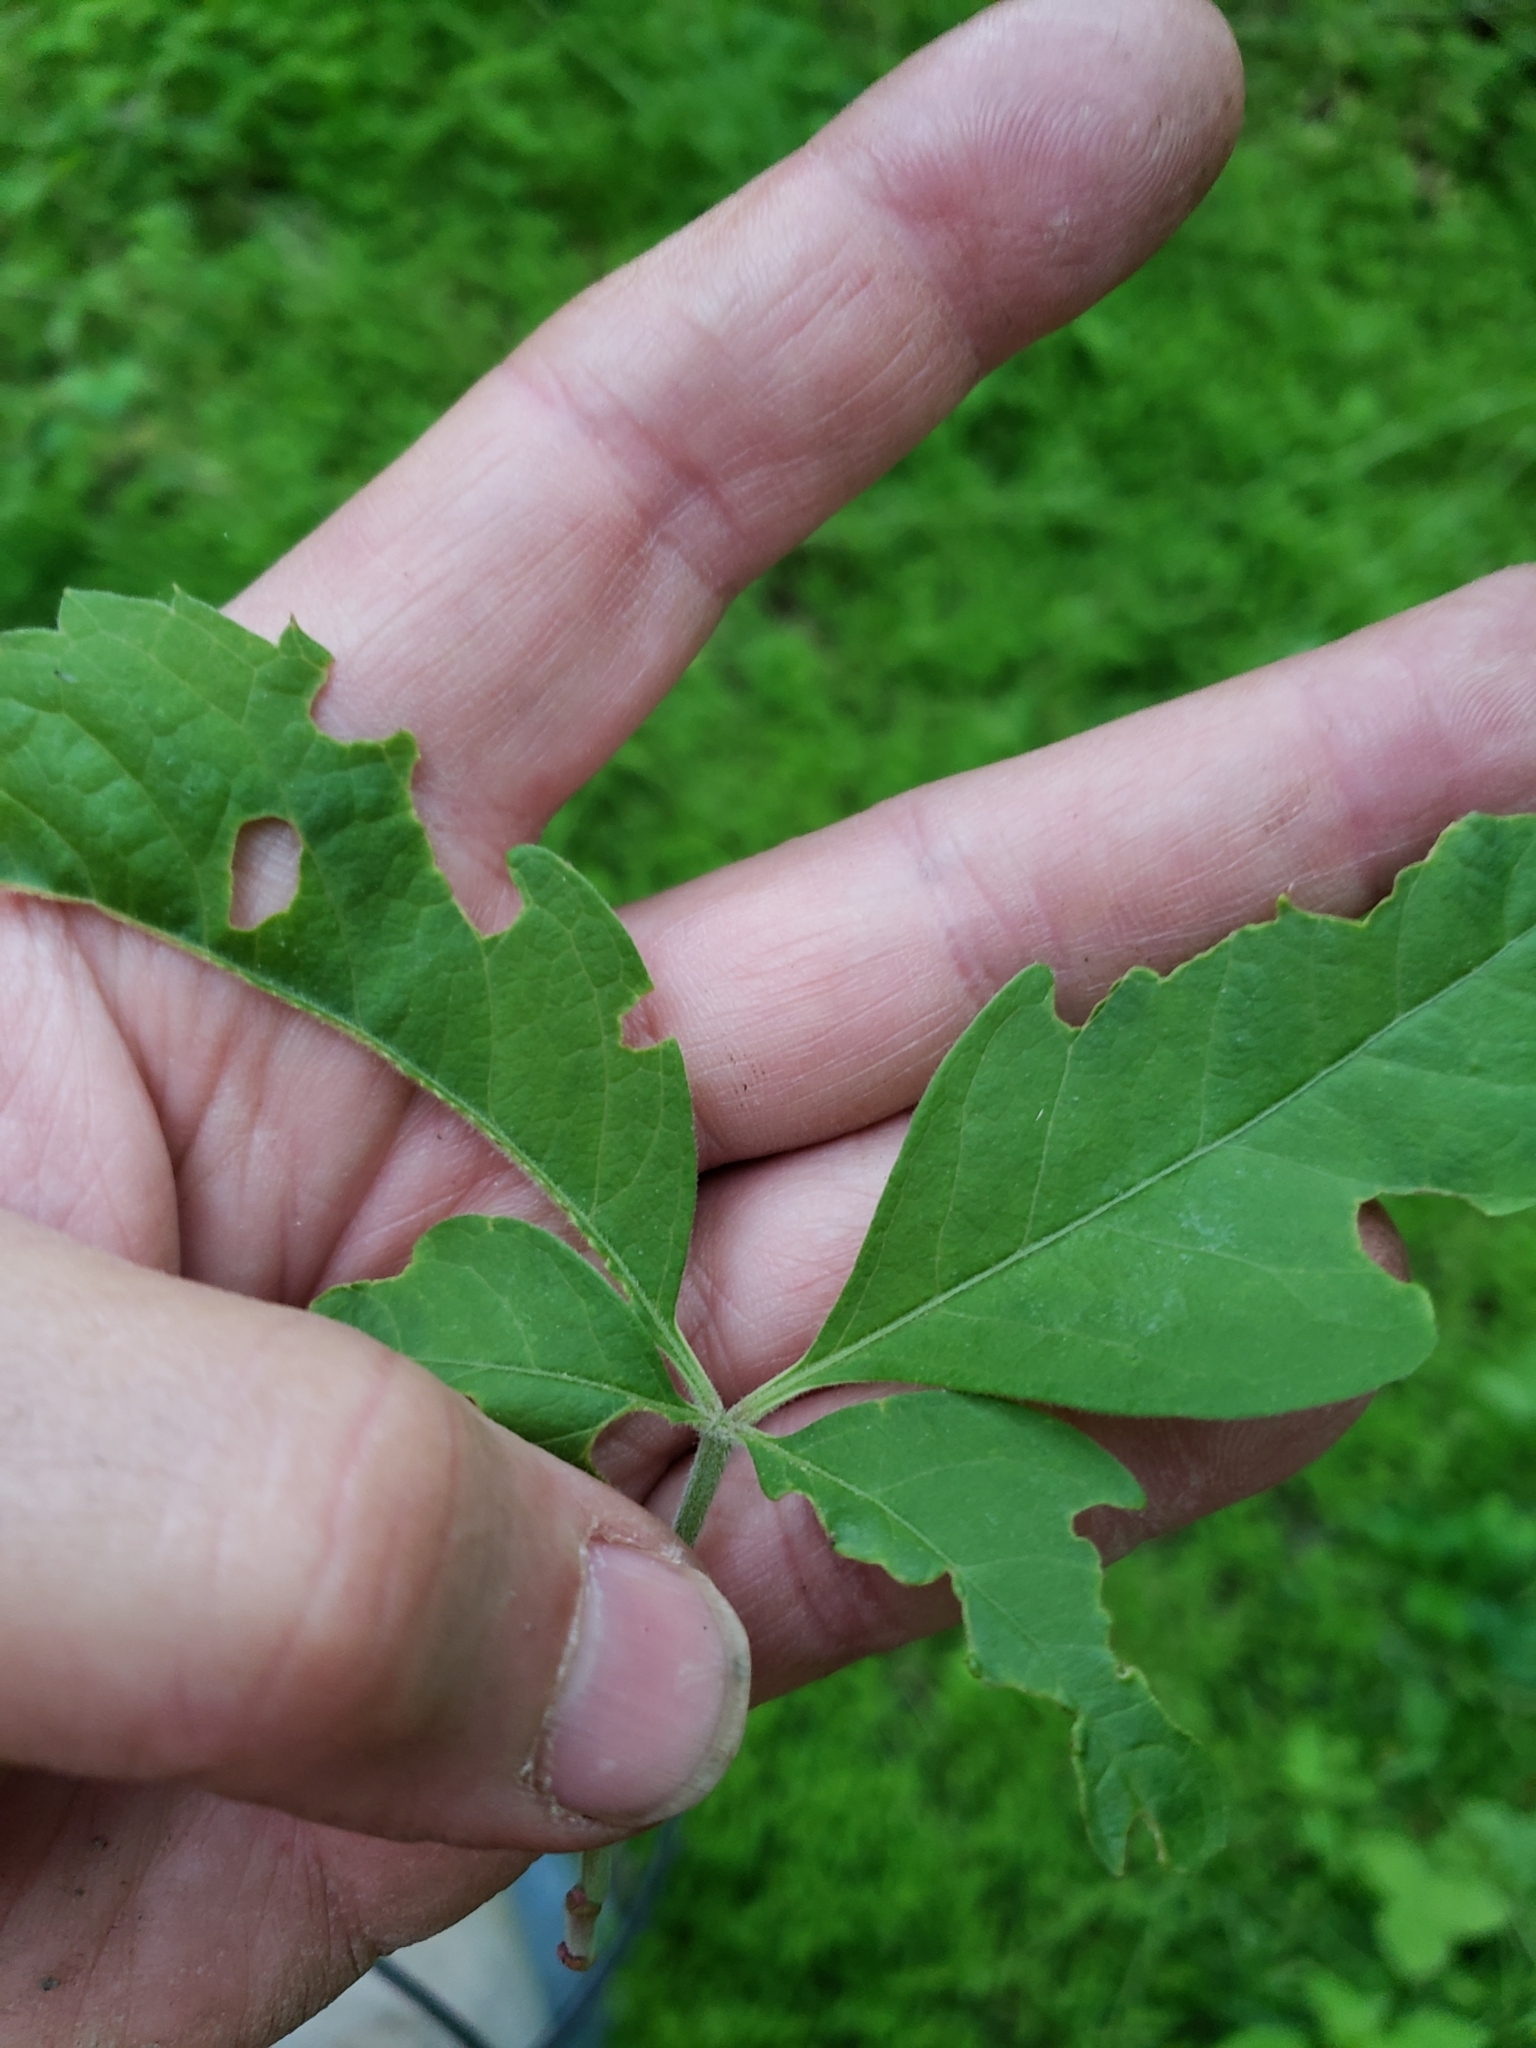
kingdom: Plantae
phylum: Tracheophyta
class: Magnoliopsida
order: Vitales
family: Vitaceae
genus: Parthenocissus
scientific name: Parthenocissus quinquefolia
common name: Virginia-creeper
